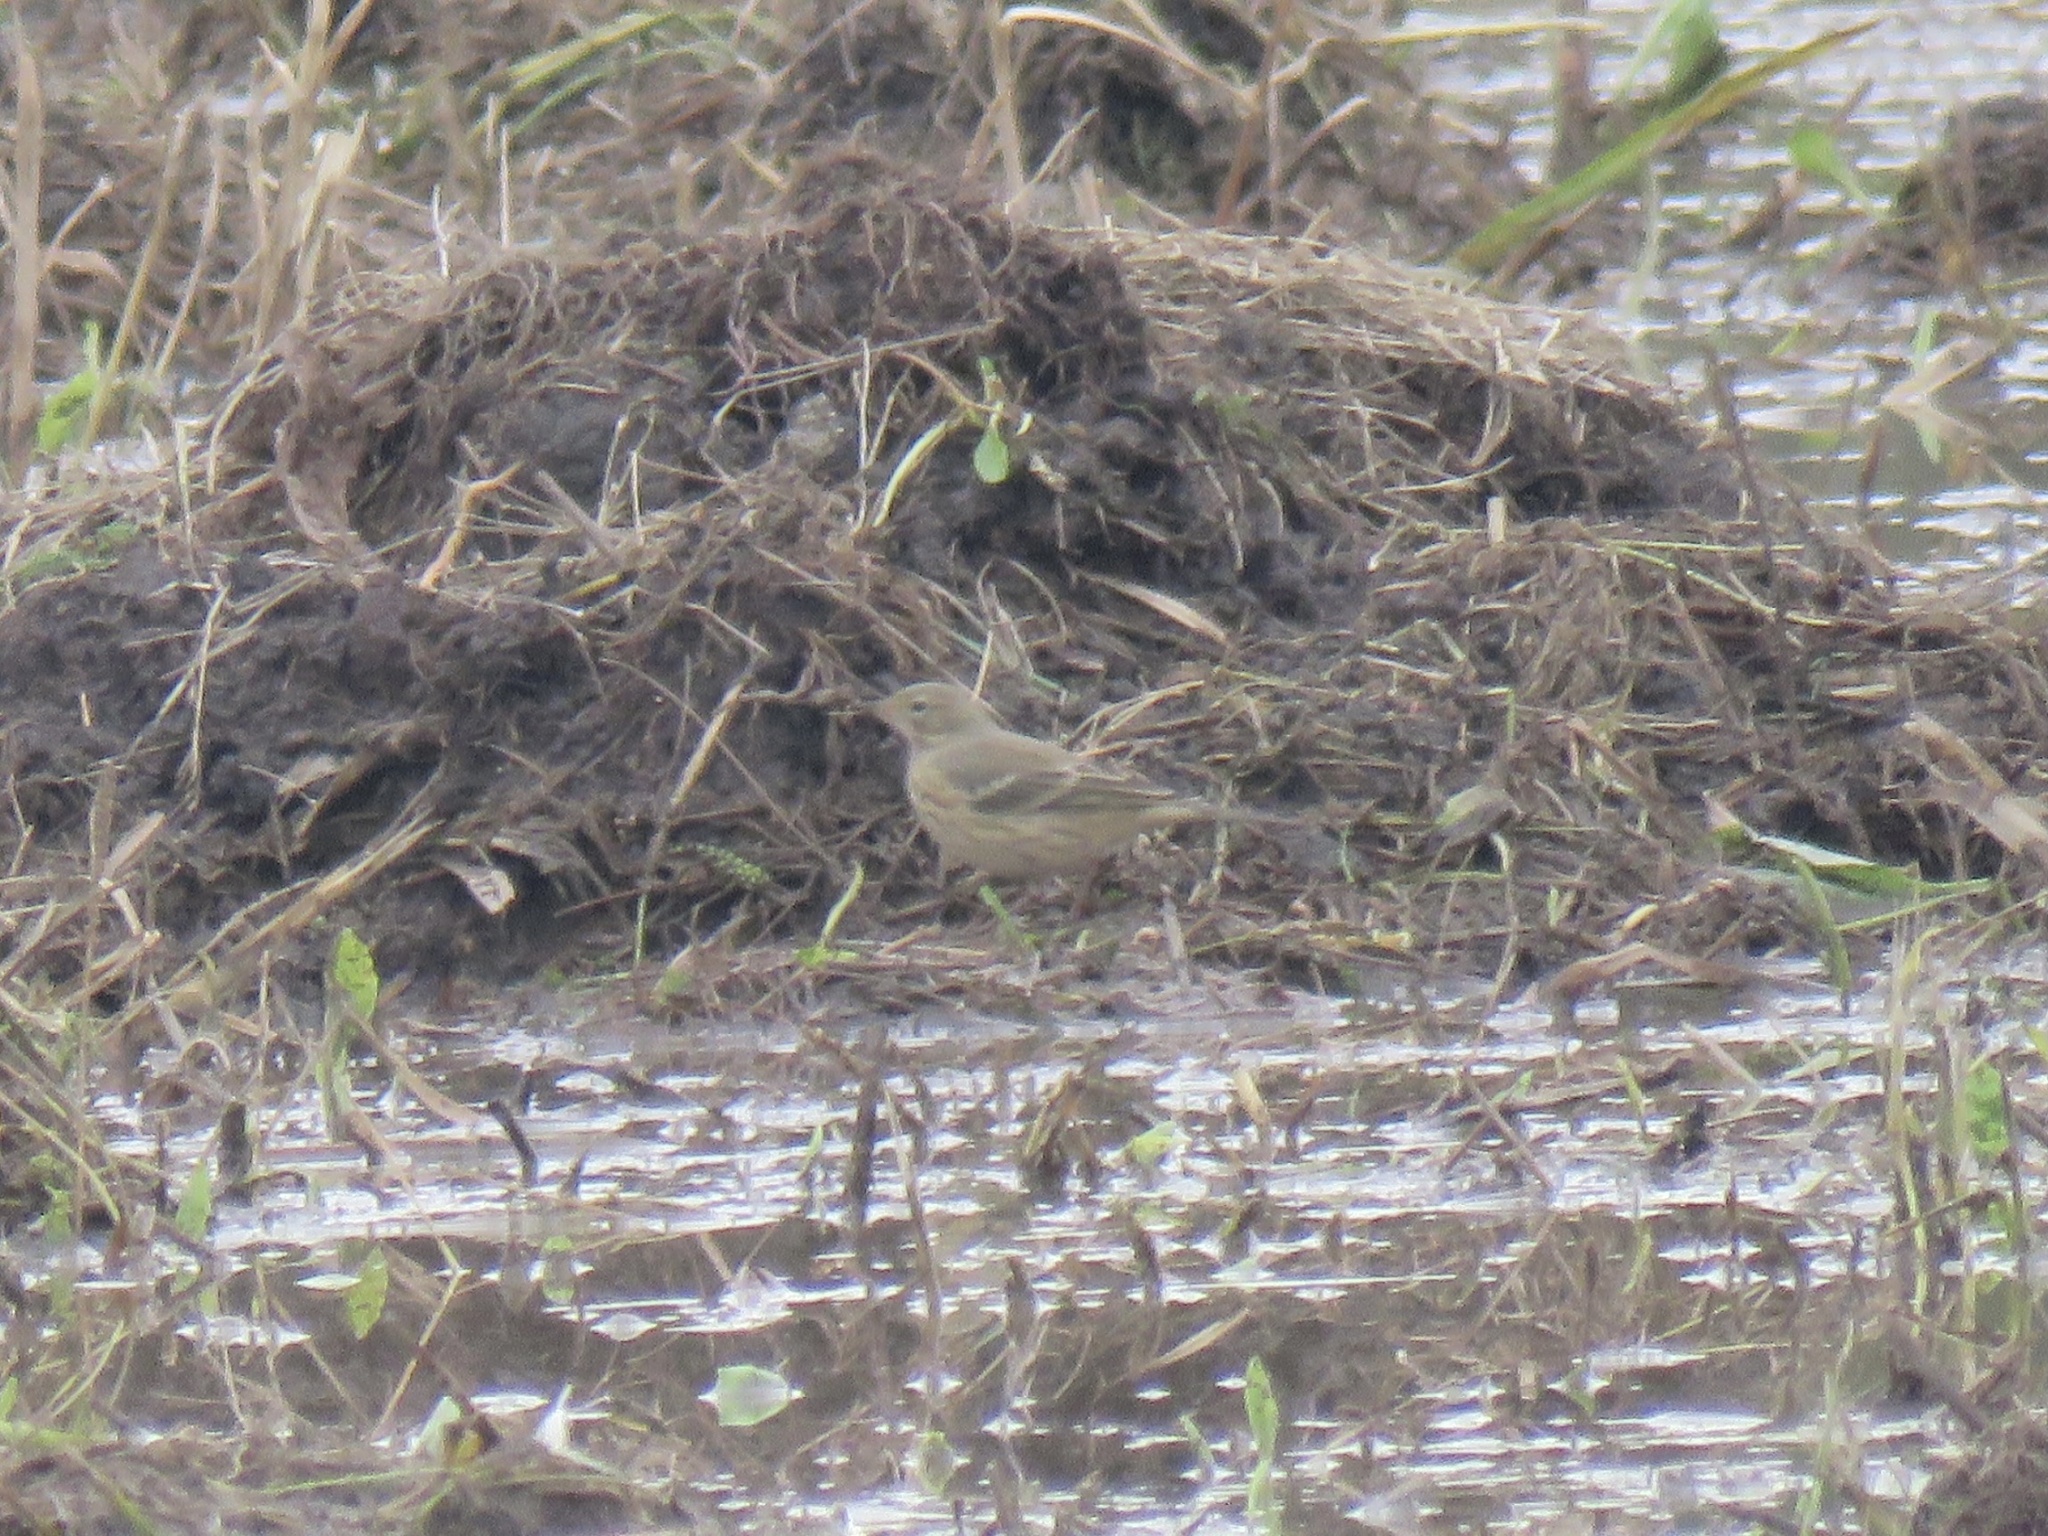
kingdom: Animalia
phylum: Chordata
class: Aves
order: Passeriformes
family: Motacillidae
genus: Anthus
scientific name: Anthus rubescens
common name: Buff-bellied pipit
